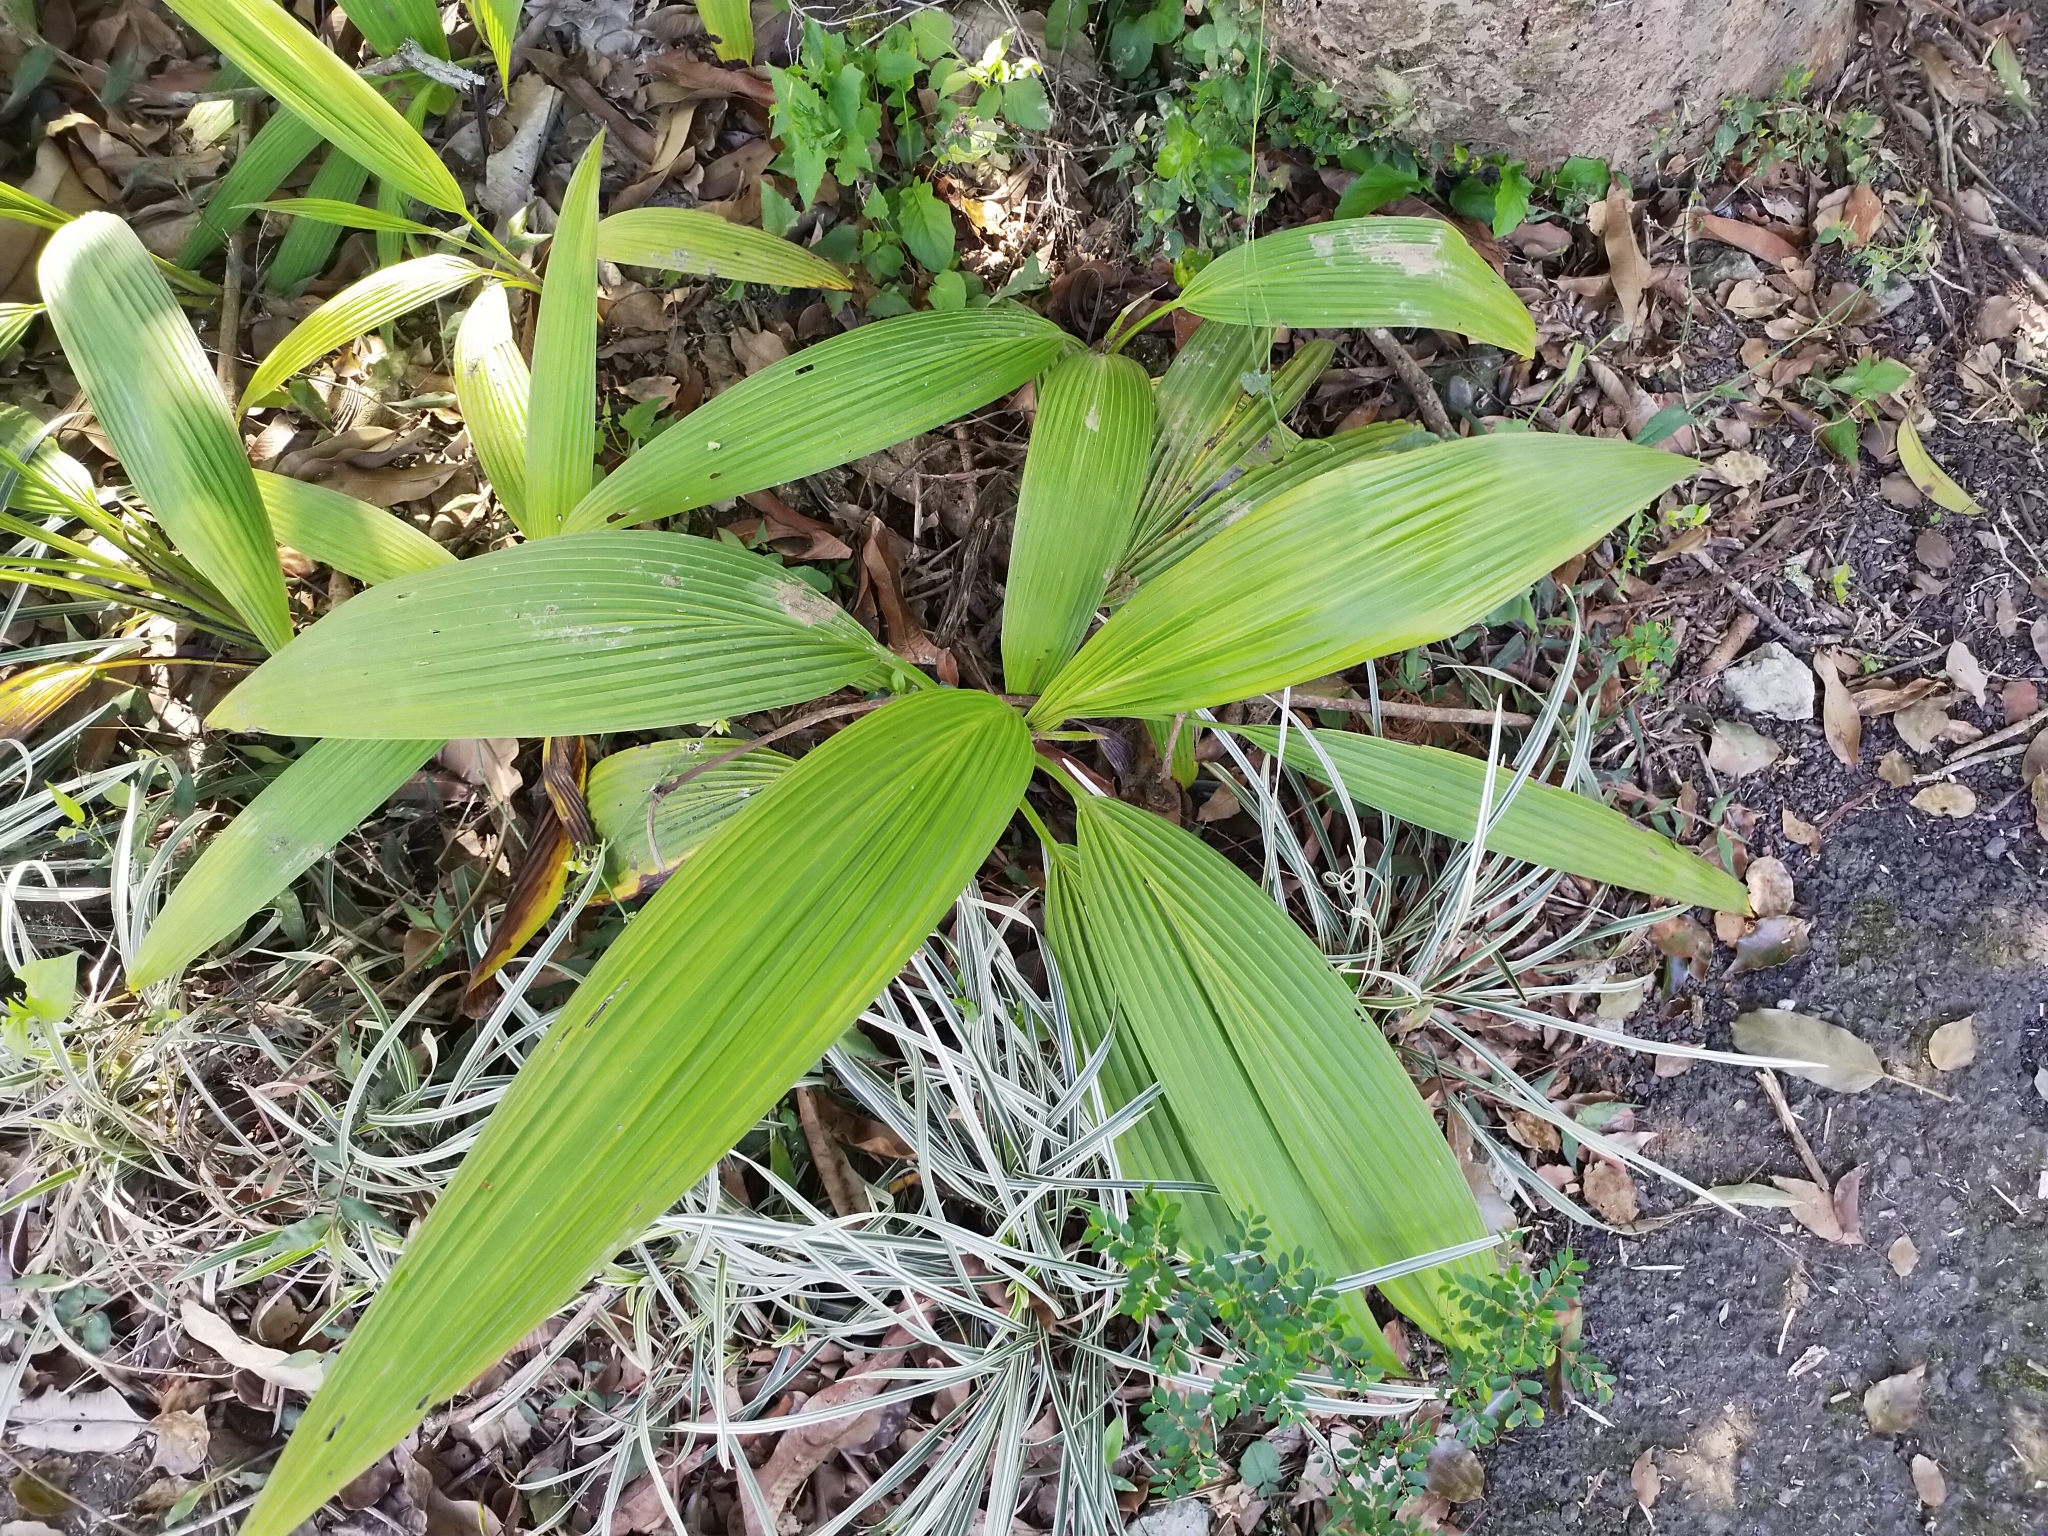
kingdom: Plantae
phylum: Tracheophyta
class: Liliopsida
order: Poales
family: Poaceae
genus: Setaria
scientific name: Setaria palmifolia
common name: Broadleaved bristlegrass
